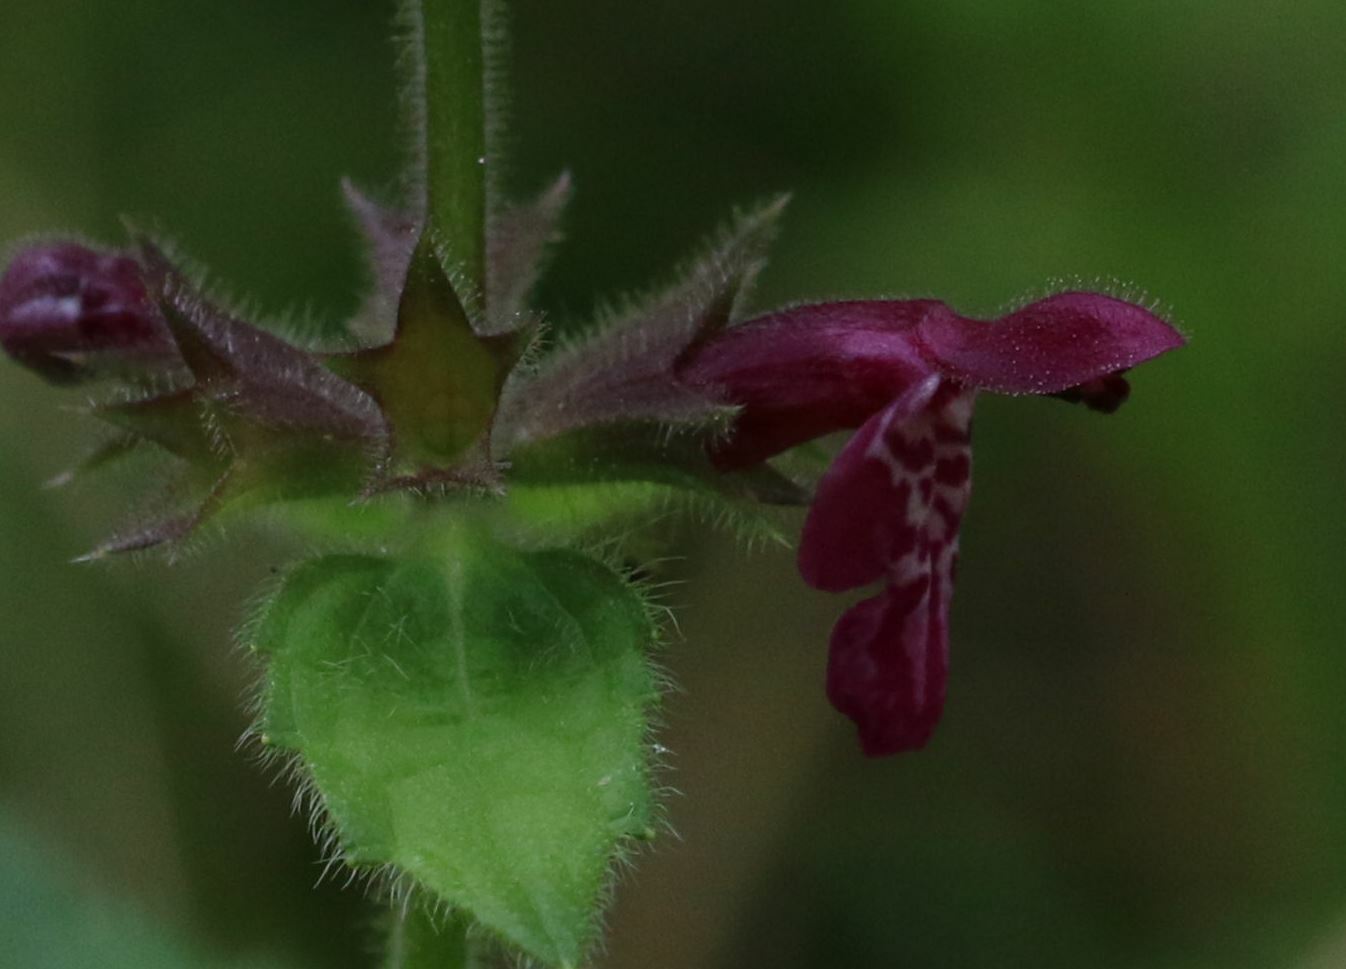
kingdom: Plantae
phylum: Tracheophyta
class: Magnoliopsida
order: Lamiales
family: Lamiaceae
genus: Stachys
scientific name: Stachys sylvatica
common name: Hedge woundwort
